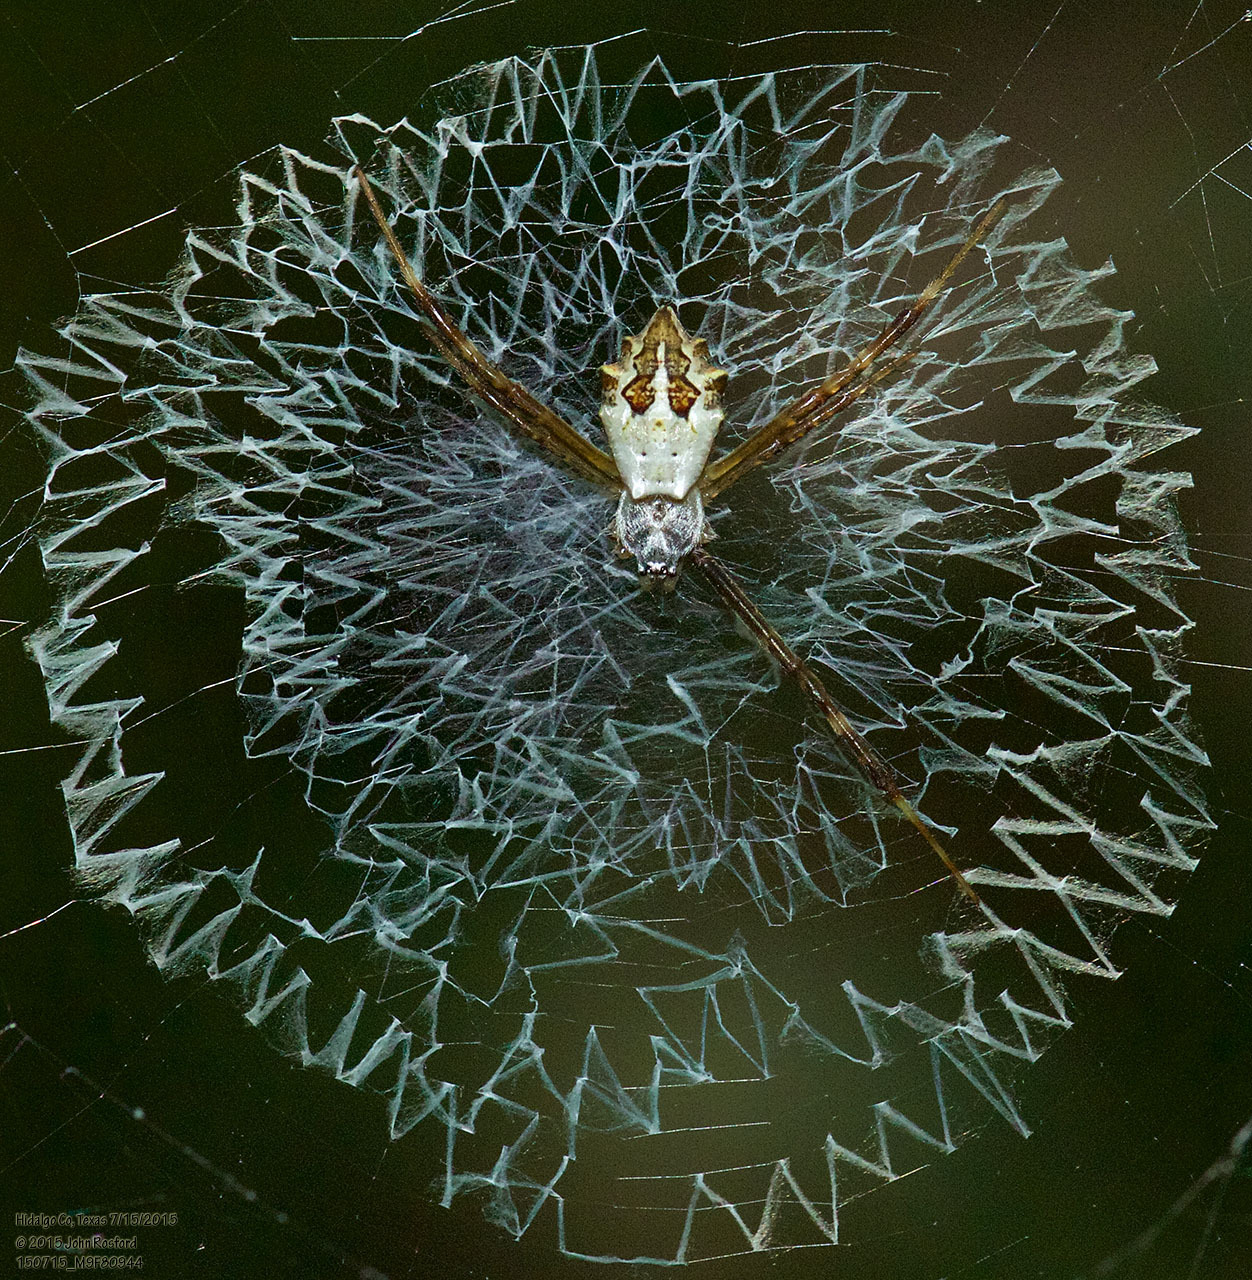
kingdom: Animalia
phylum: Arthropoda
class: Arachnida
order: Araneae
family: Araneidae
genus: Argiope
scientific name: Argiope argentata
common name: Orb weavers
